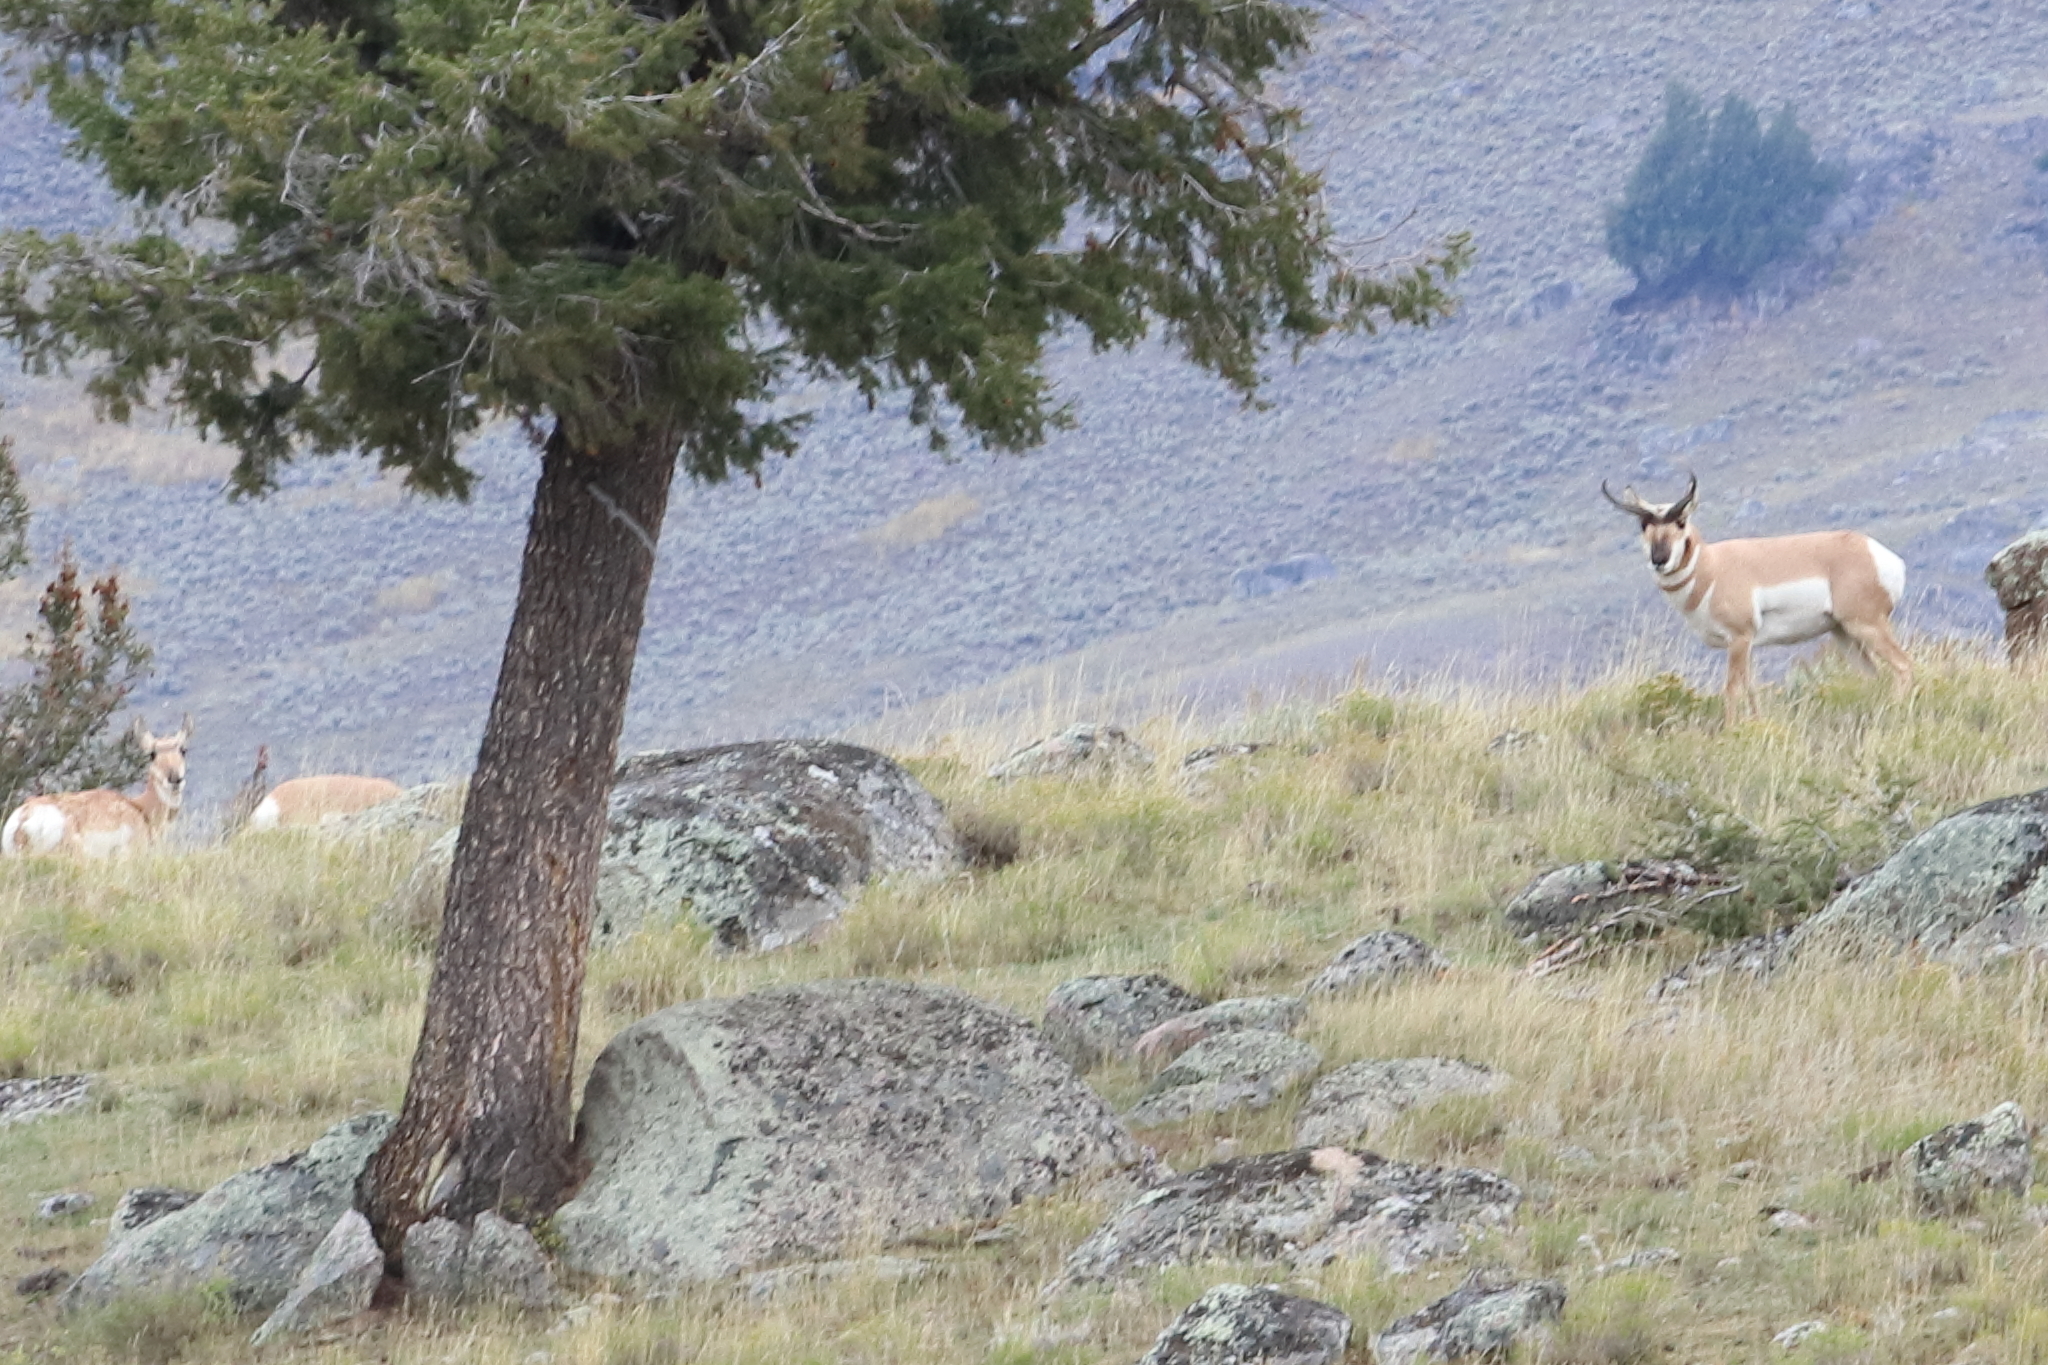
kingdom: Animalia
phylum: Chordata
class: Mammalia
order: Artiodactyla
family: Antilocapridae
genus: Antilocapra
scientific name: Antilocapra americana
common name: Pronghorn
